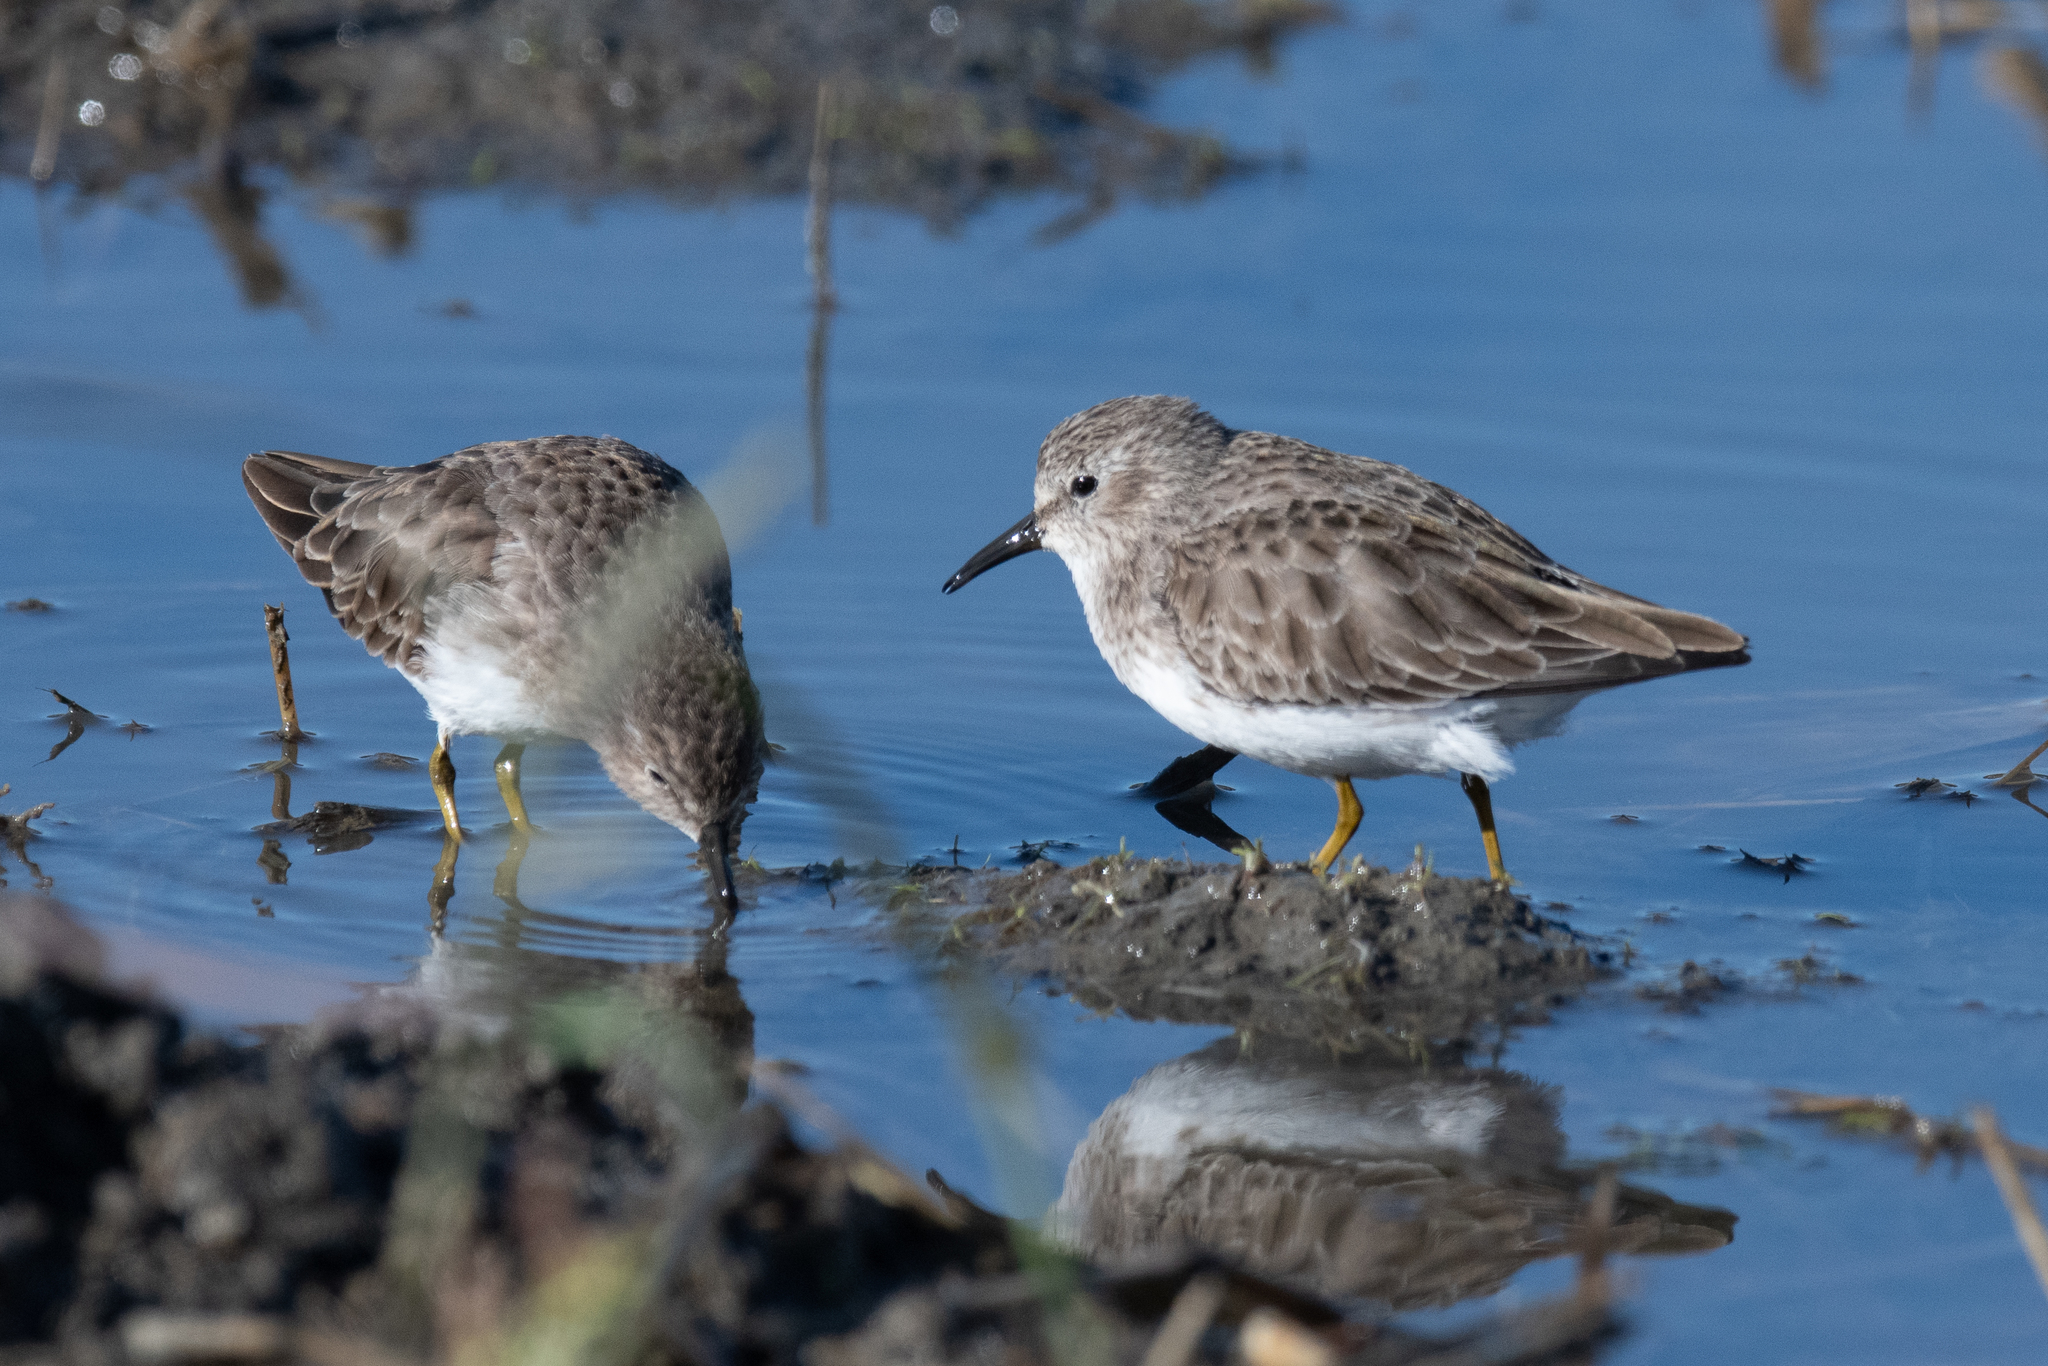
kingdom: Animalia
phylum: Chordata
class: Aves
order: Charadriiformes
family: Scolopacidae
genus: Calidris
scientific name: Calidris minutilla
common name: Least sandpiper
